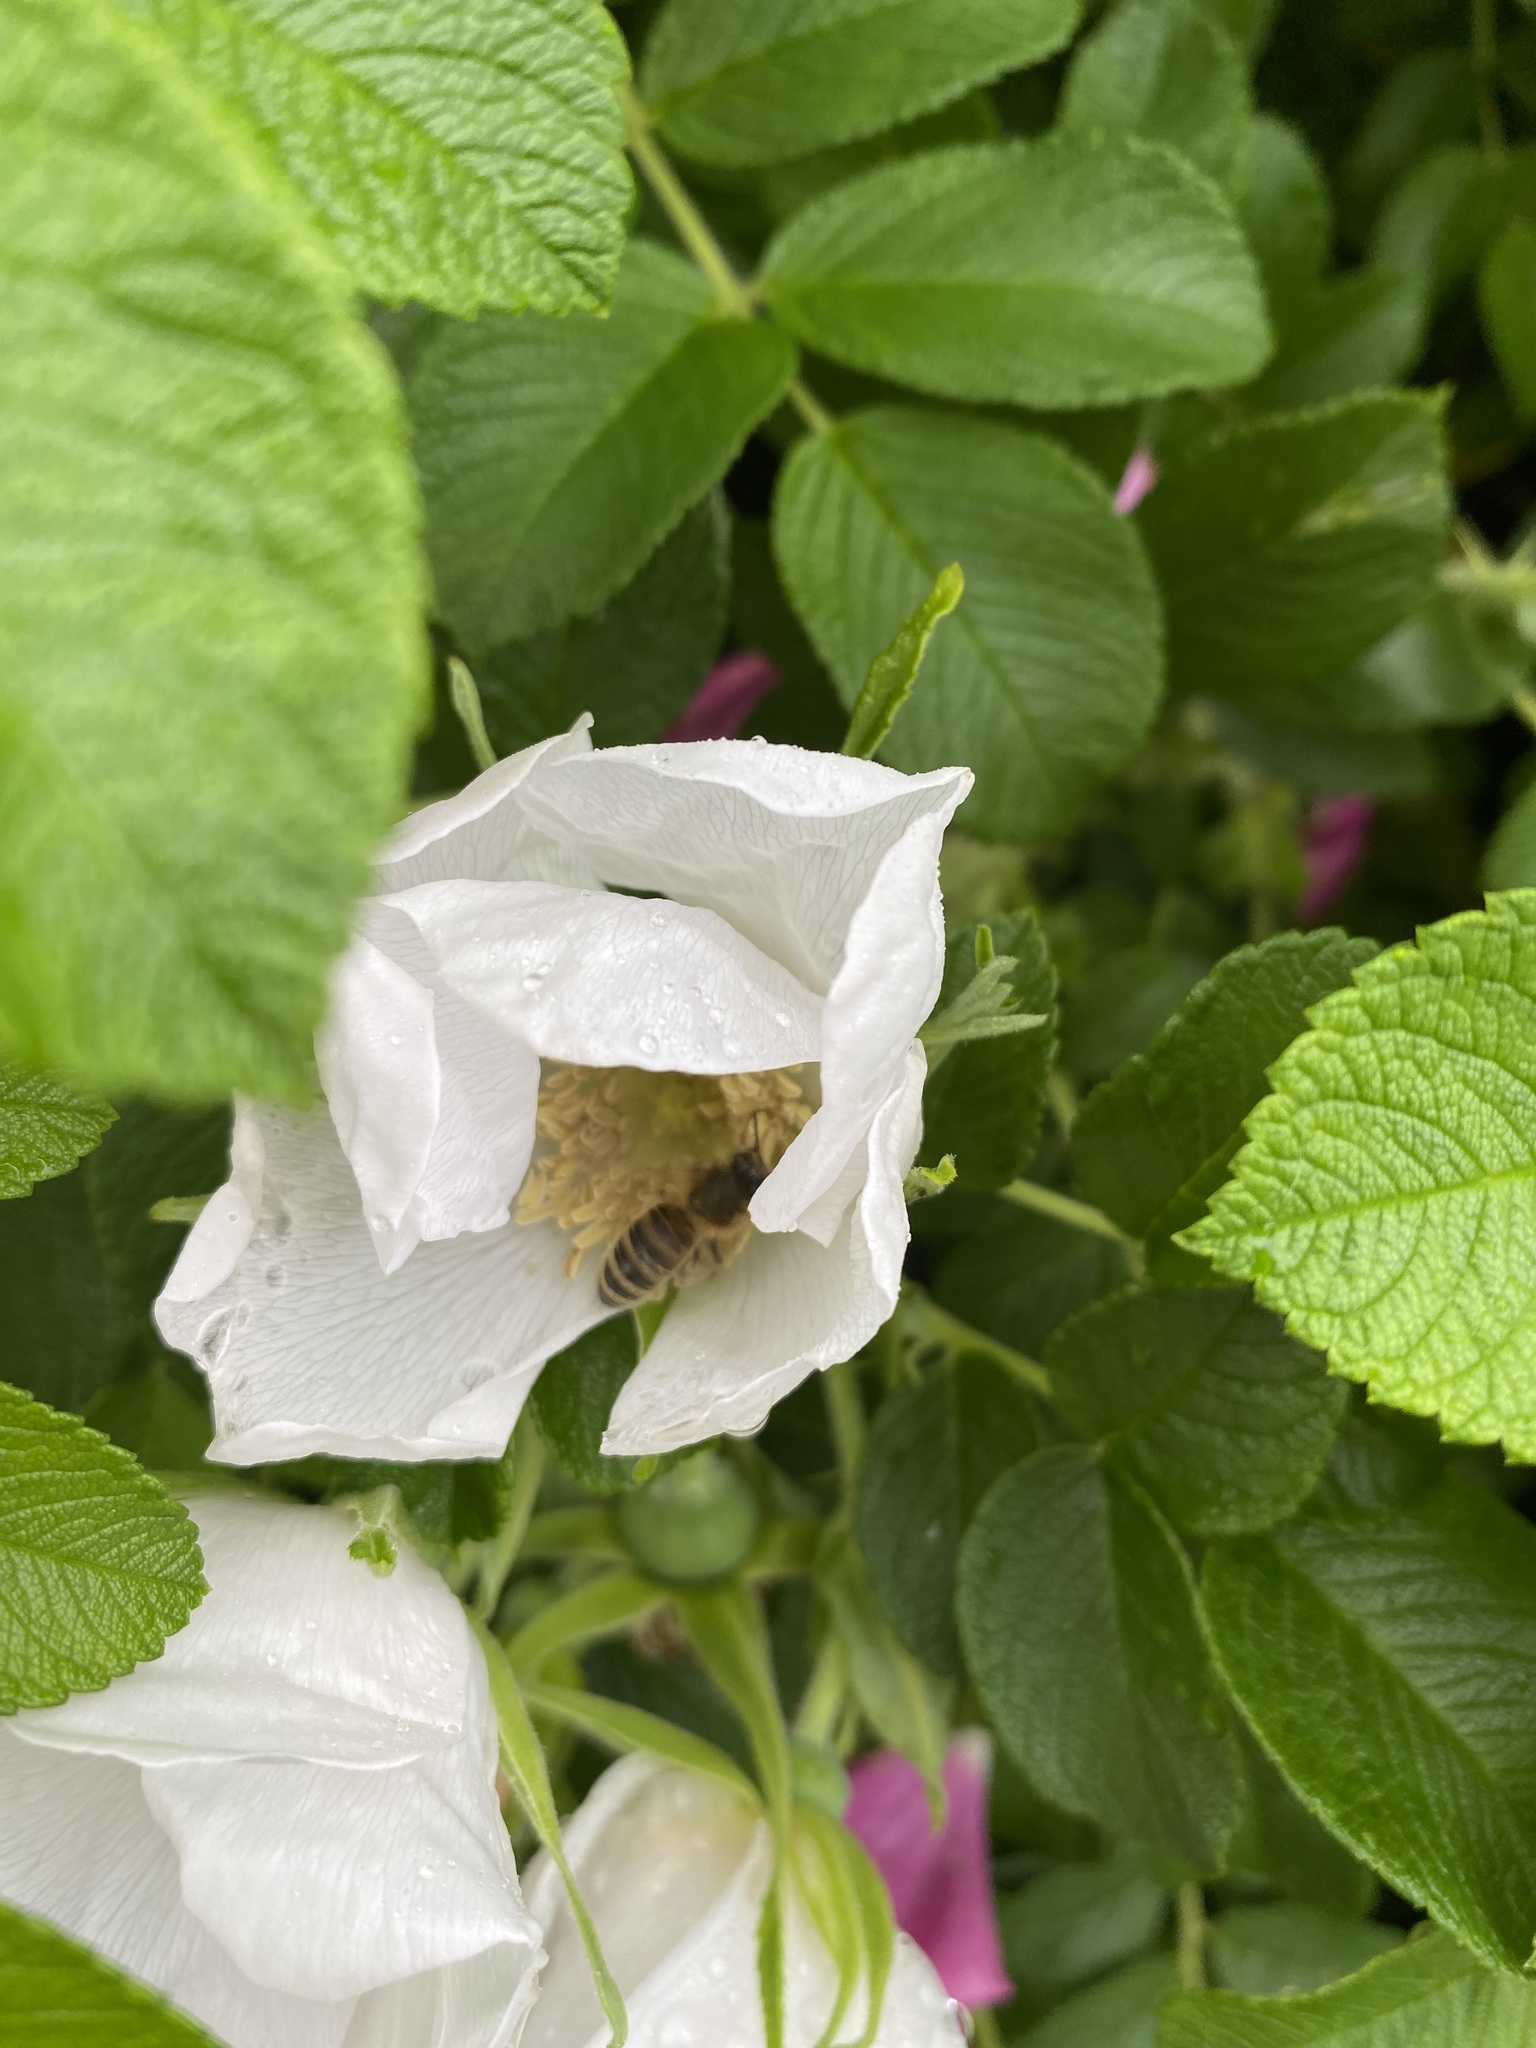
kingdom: Animalia
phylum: Arthropoda
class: Insecta
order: Hymenoptera
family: Apidae
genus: Apis
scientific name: Apis mellifera
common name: Honey bee
